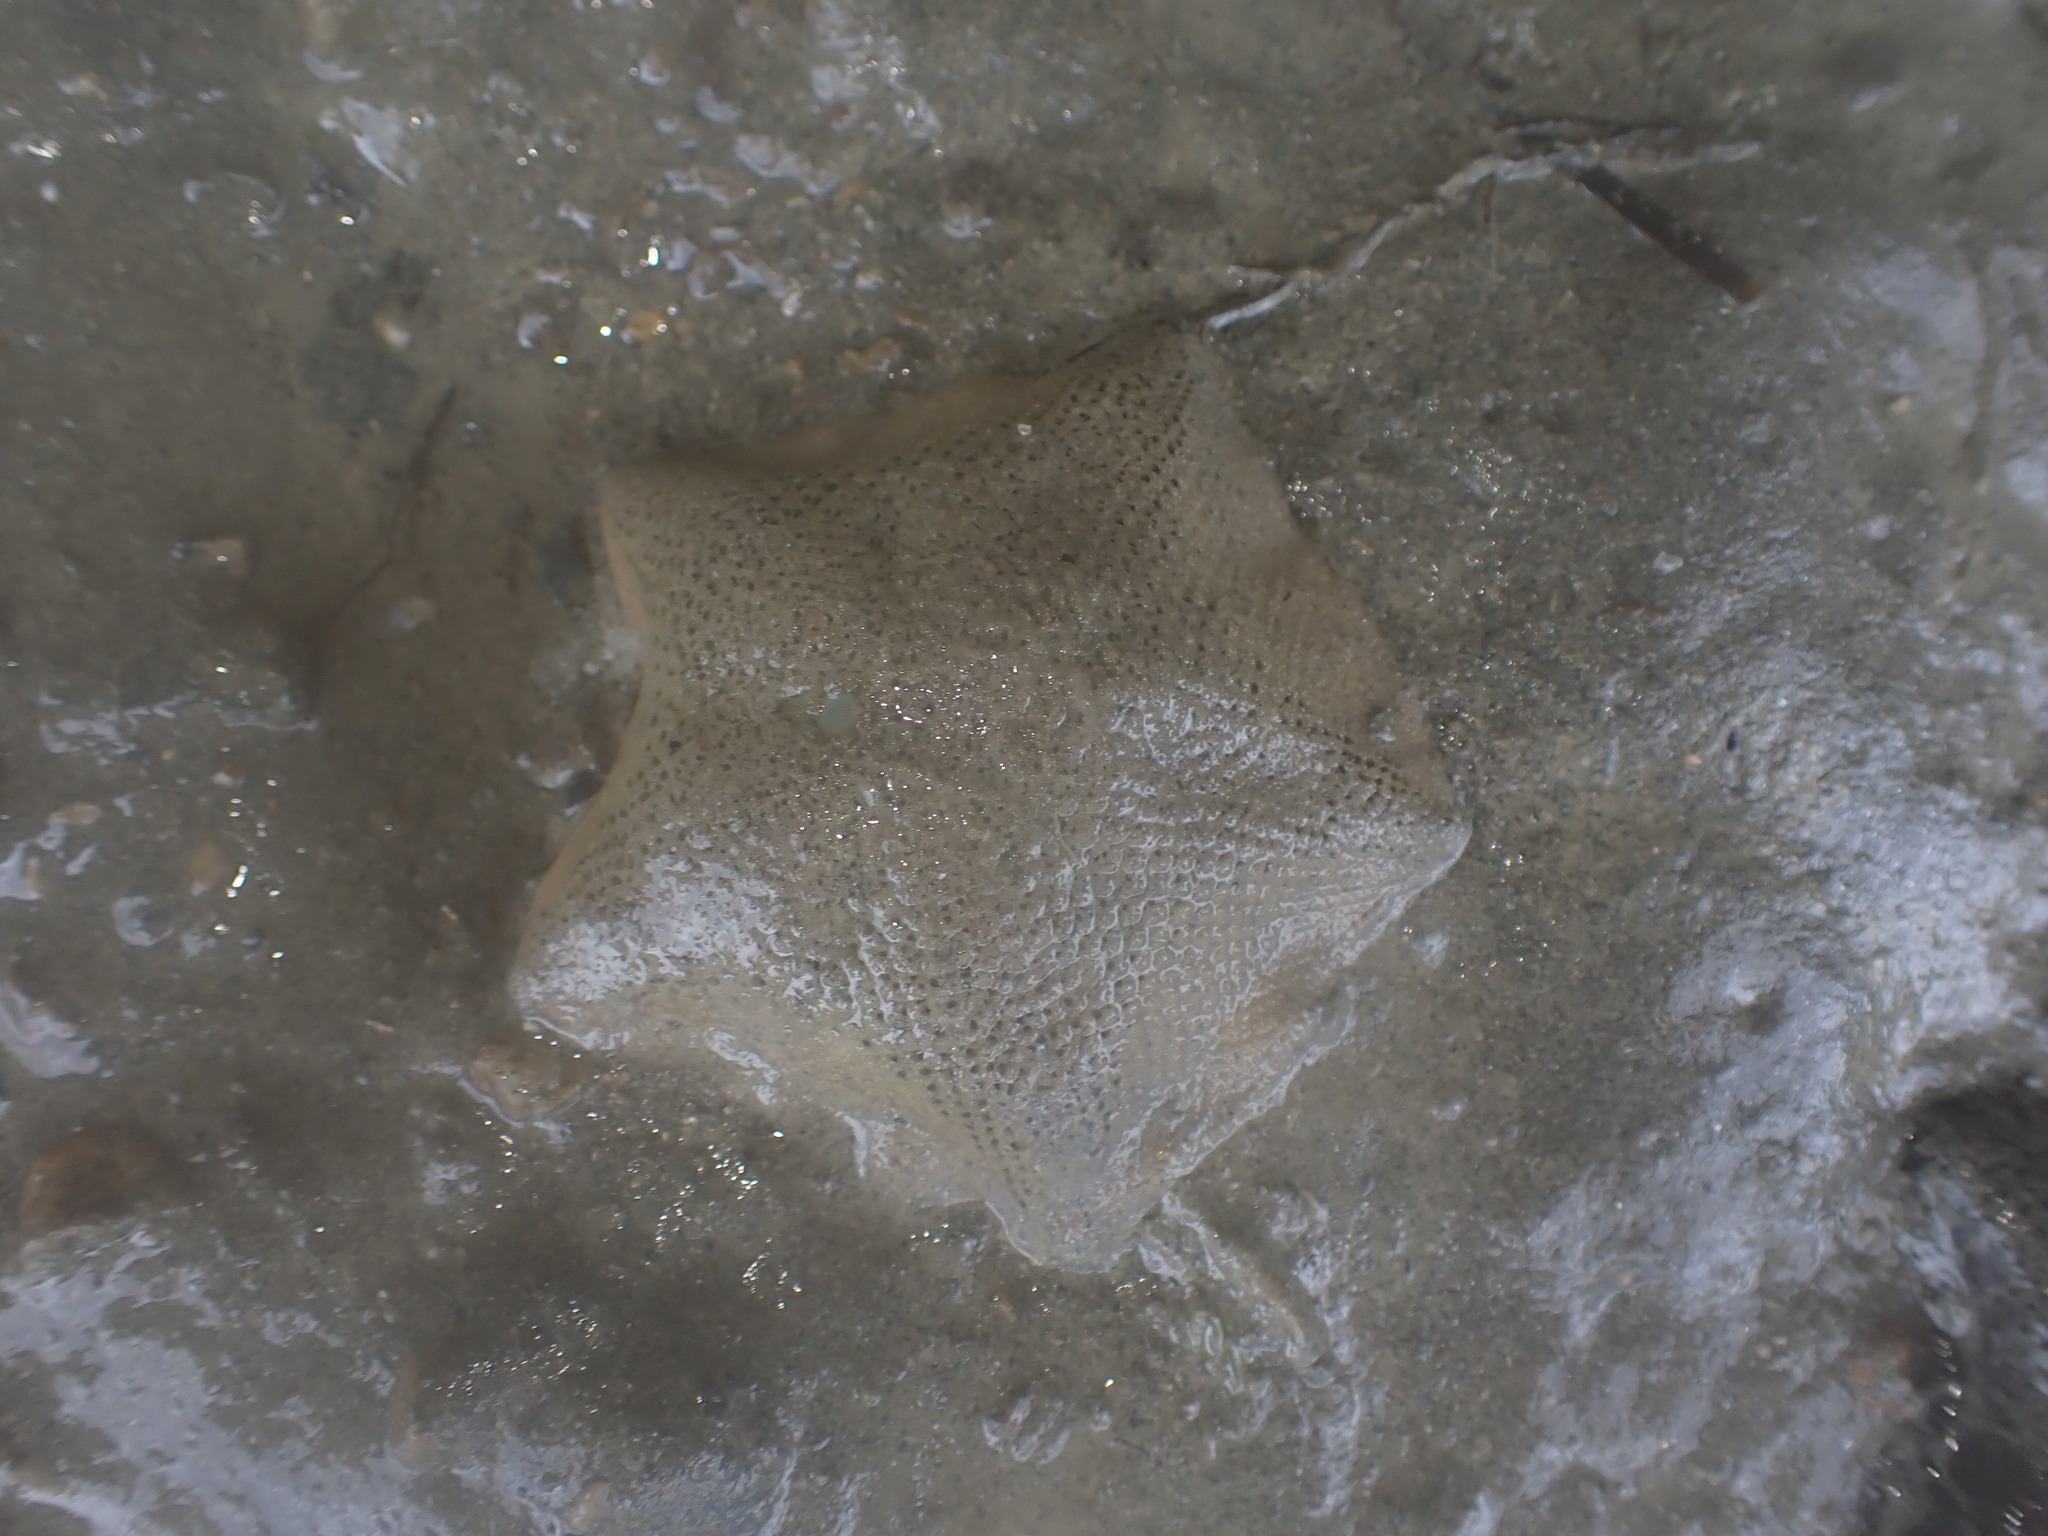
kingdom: Animalia
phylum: Echinodermata
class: Asteroidea
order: Valvatida
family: Asterinidae
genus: Patiriella
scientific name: Patiriella regularis
